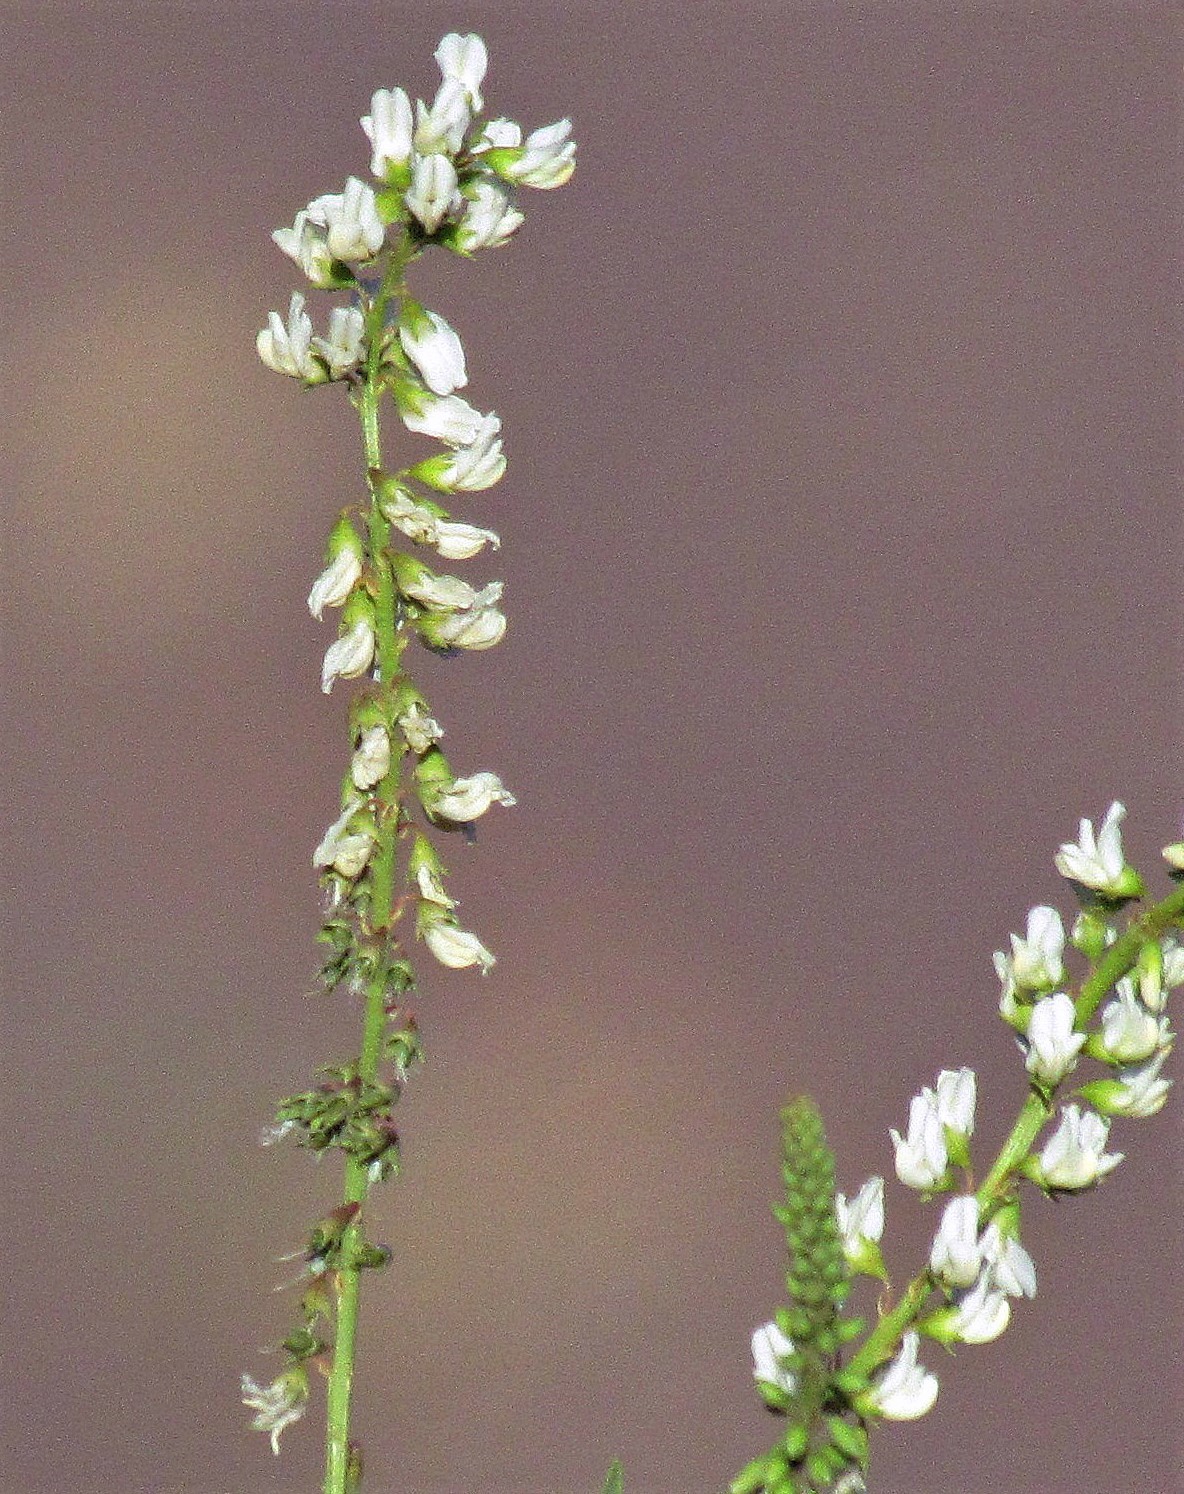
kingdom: Plantae
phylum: Tracheophyta
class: Magnoliopsida
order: Fabales
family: Fabaceae
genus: Melilotus
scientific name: Melilotus albus
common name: White melilot
